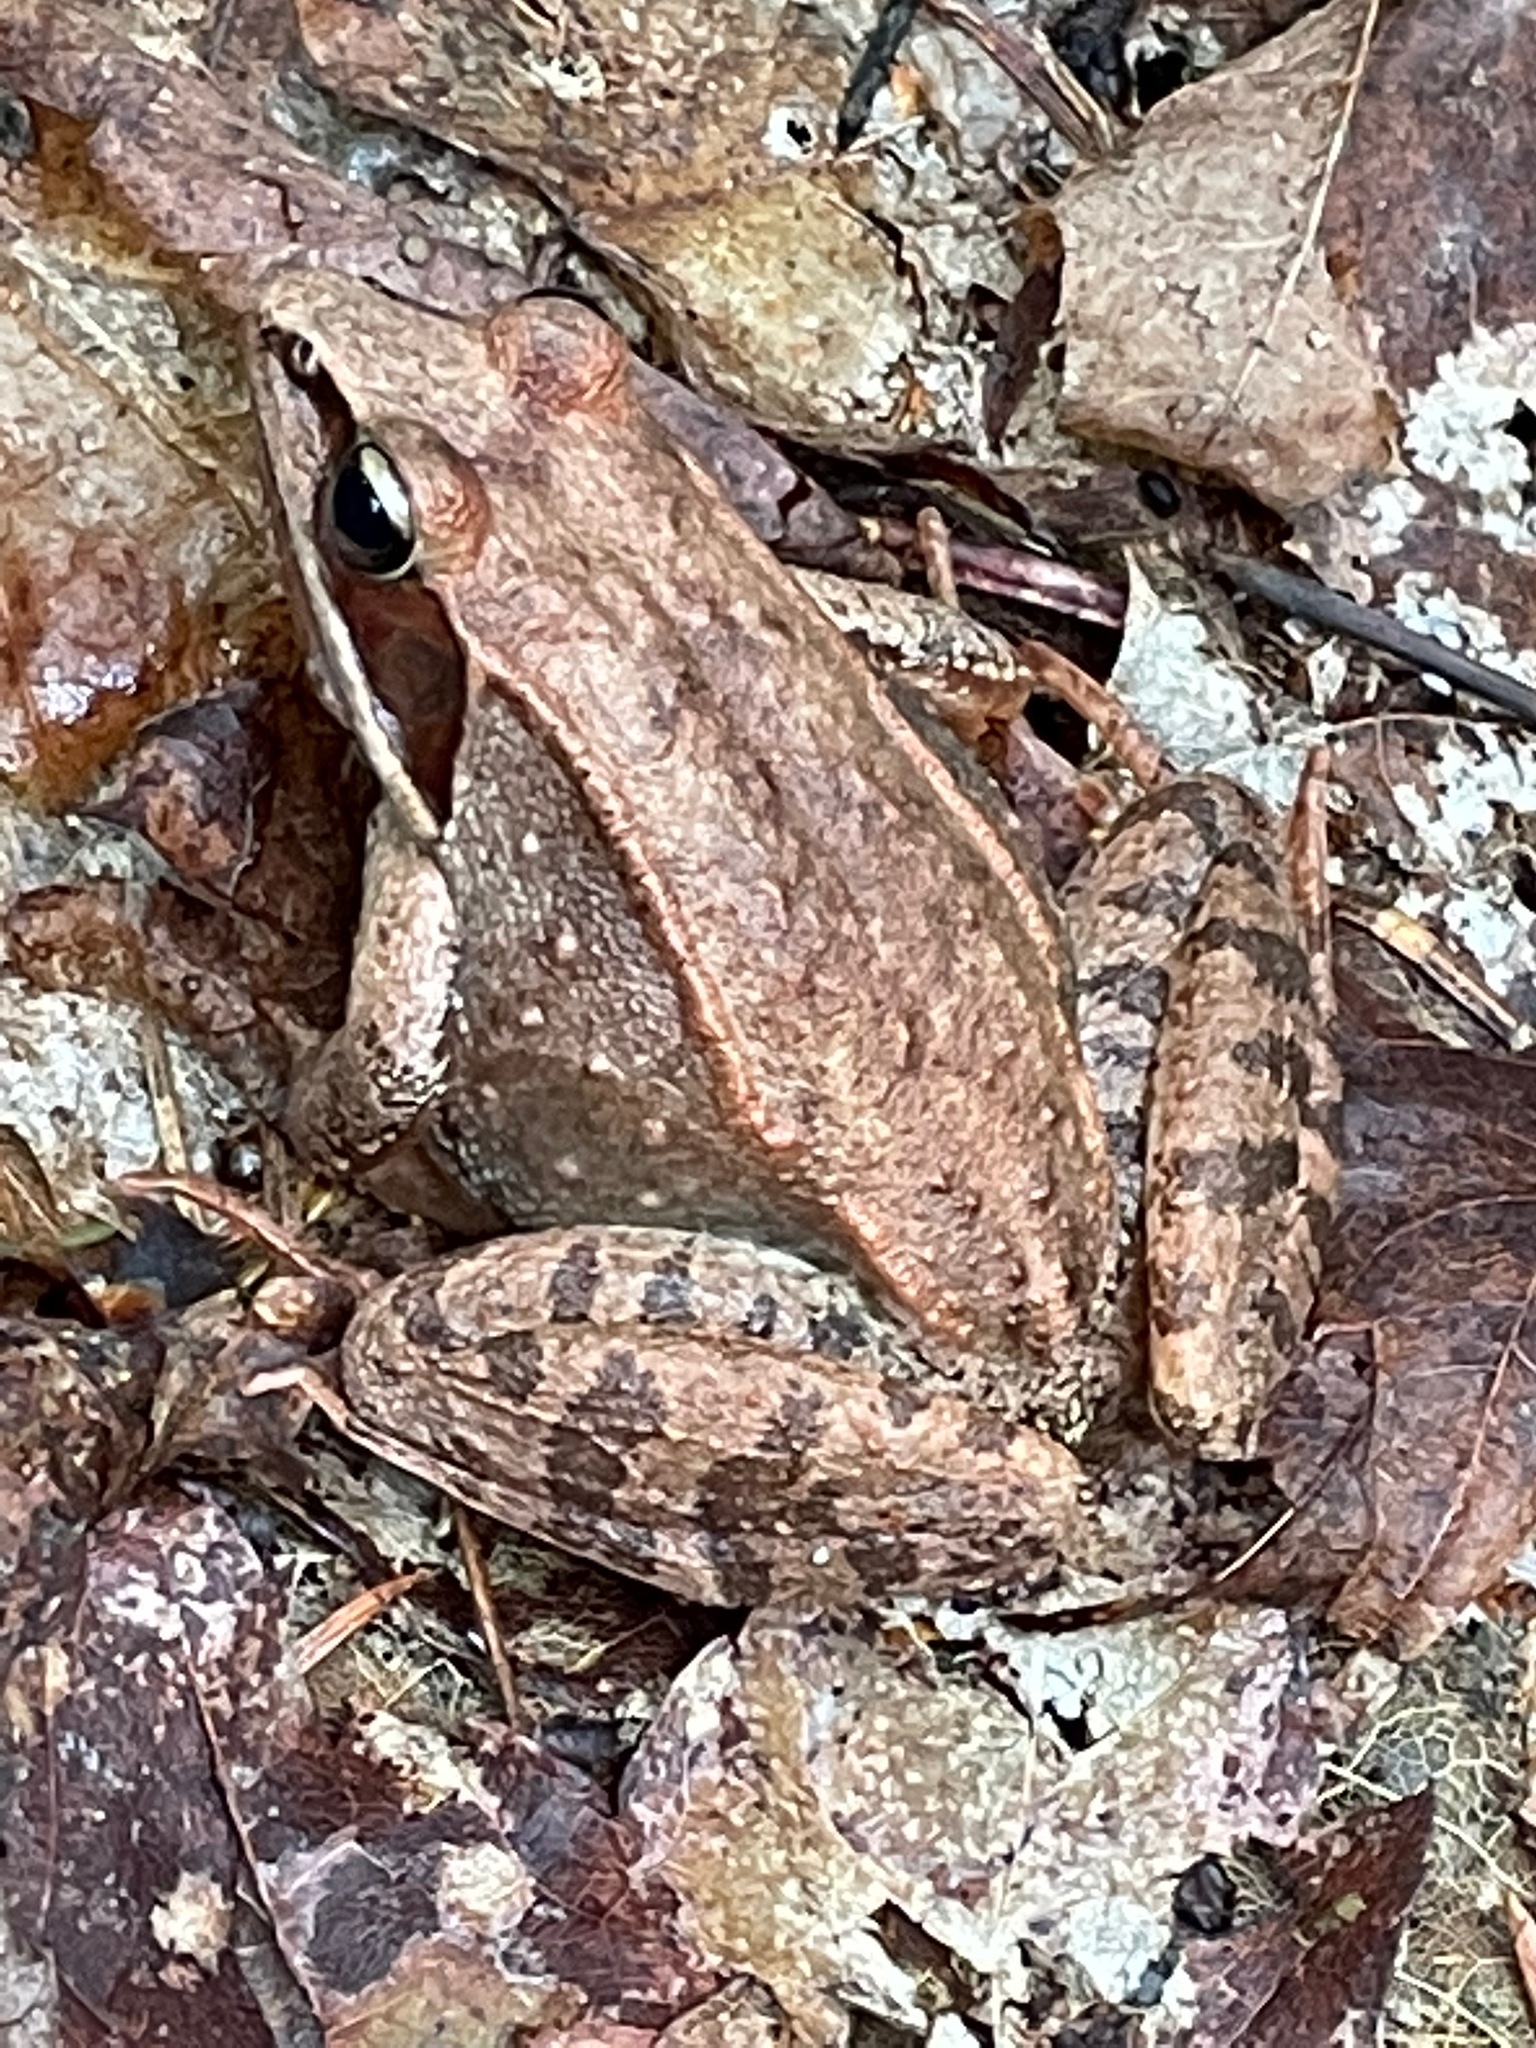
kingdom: Animalia
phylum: Chordata
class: Amphibia
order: Anura
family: Ranidae
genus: Lithobates
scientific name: Lithobates sylvaticus
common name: Wood frog
